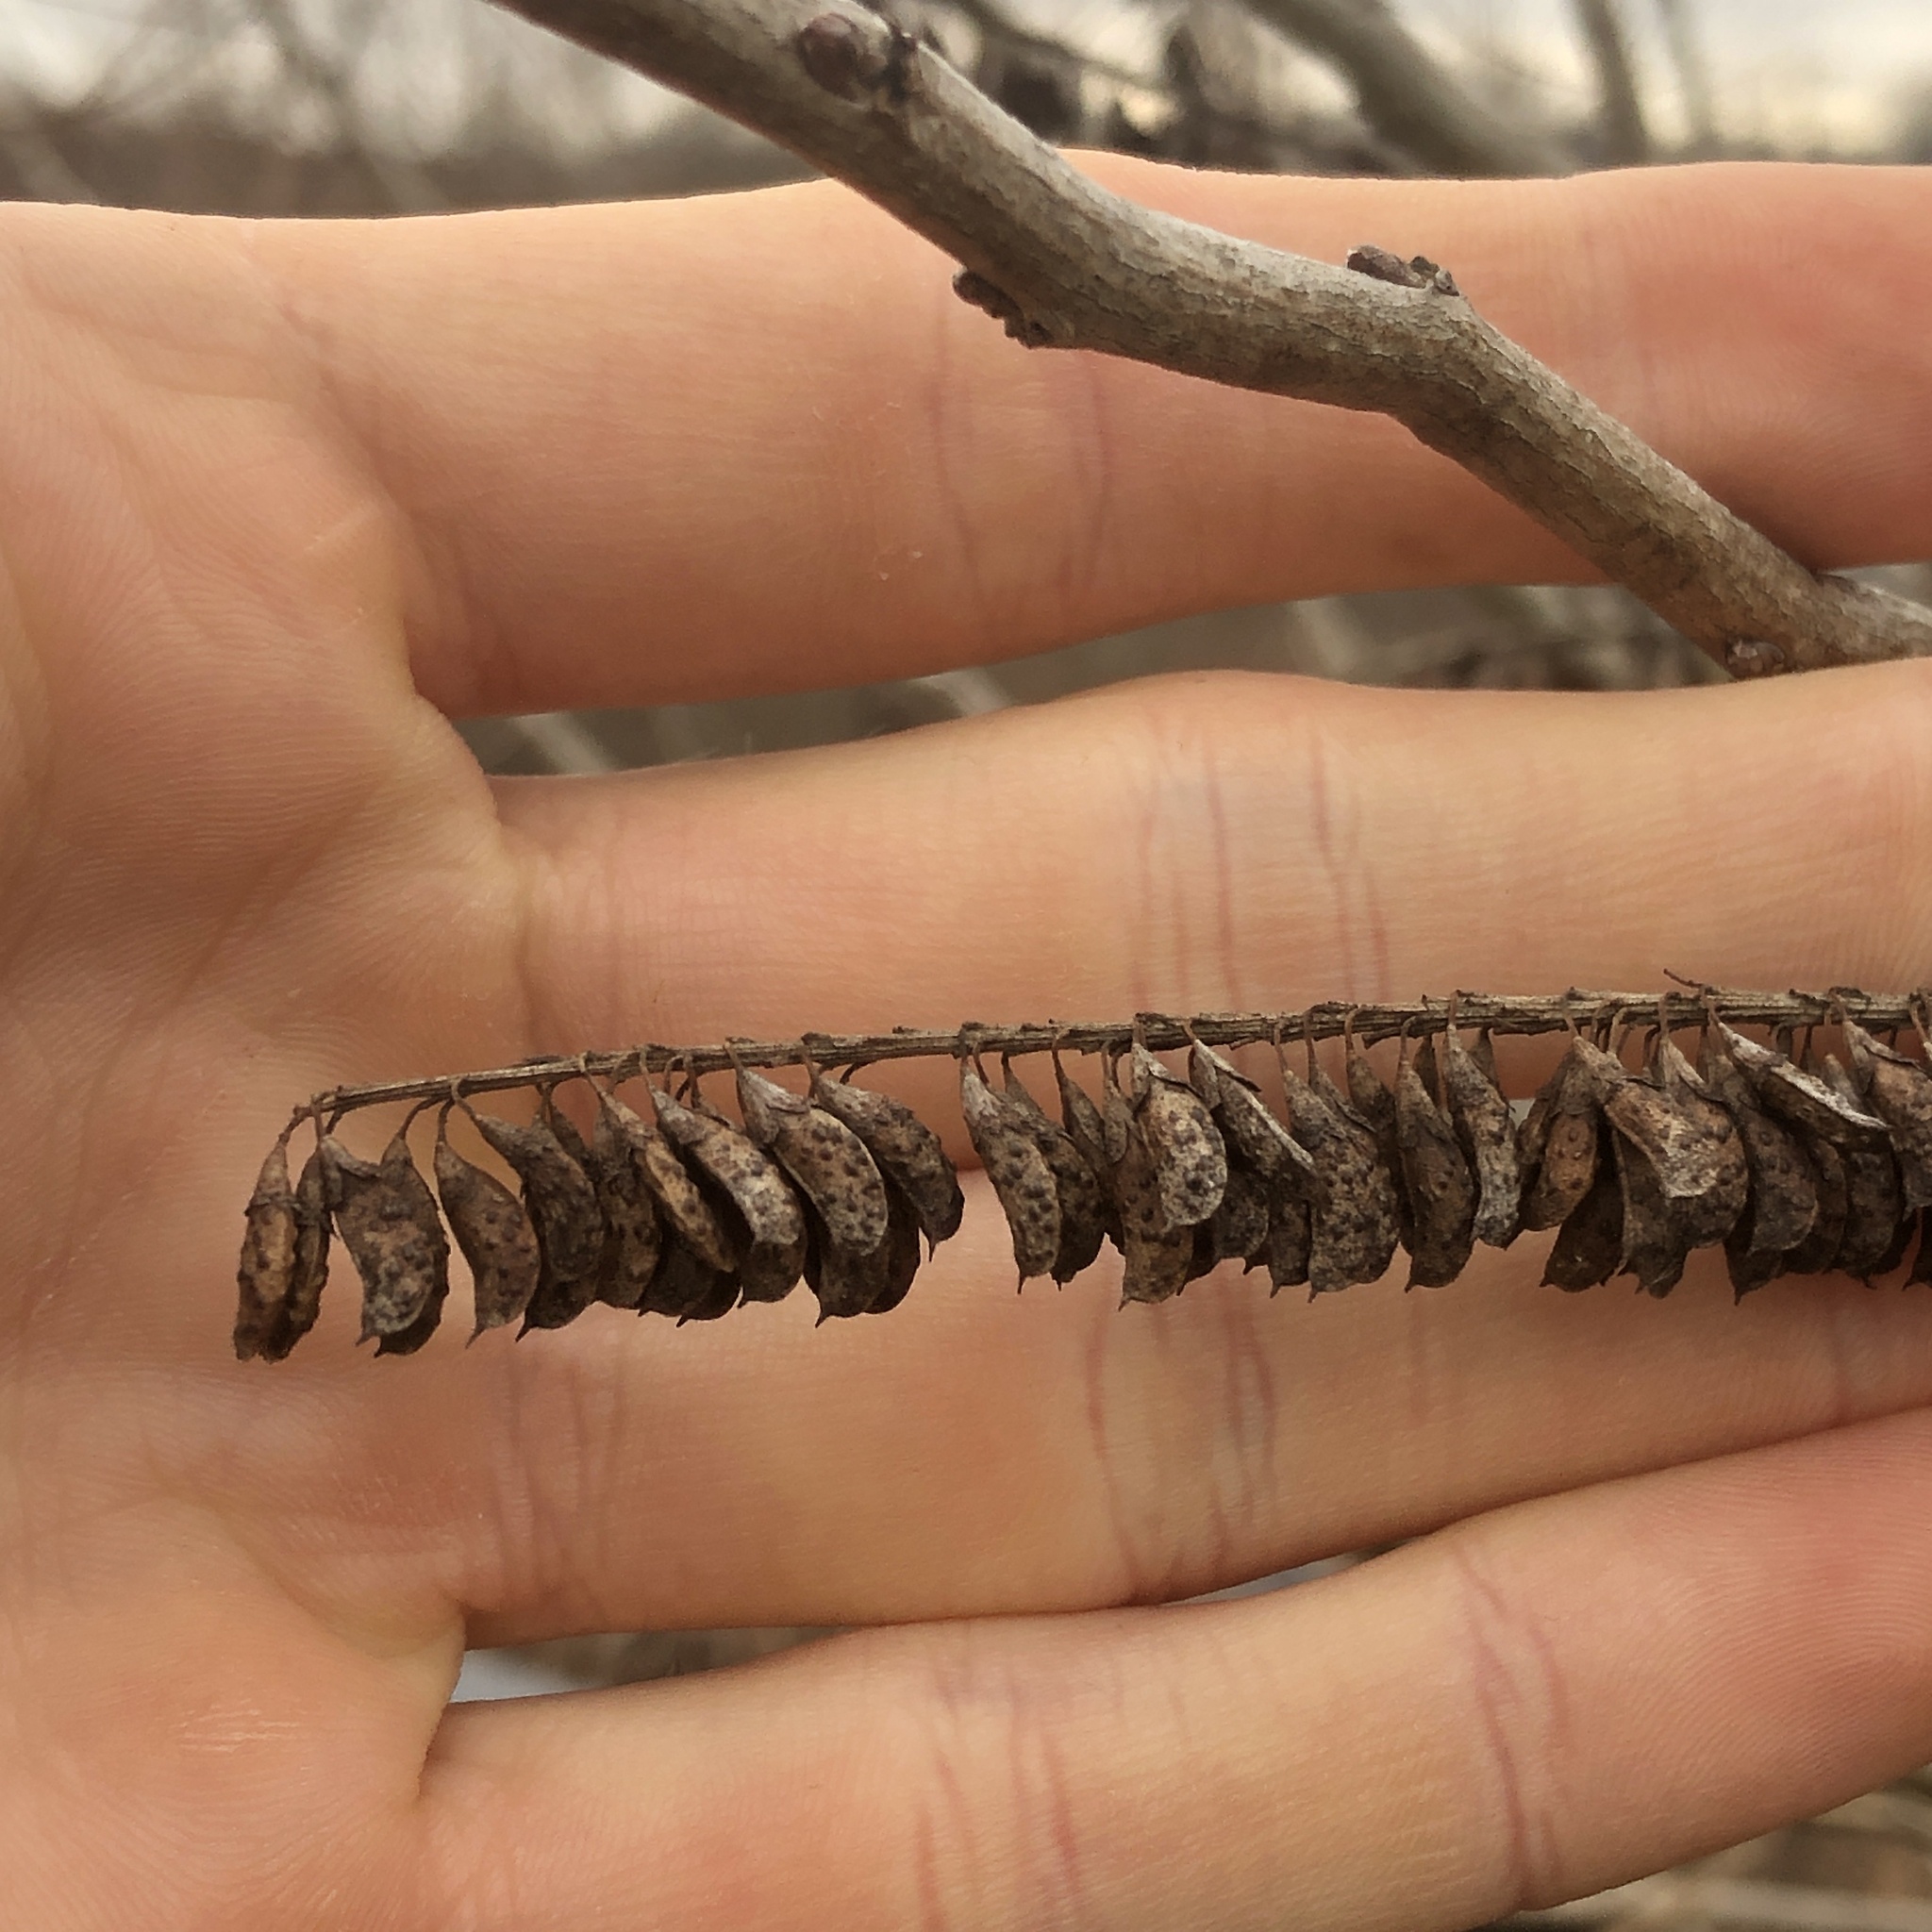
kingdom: Plantae
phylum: Tracheophyta
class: Magnoliopsida
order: Fabales
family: Fabaceae
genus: Amorpha
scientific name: Amorpha fruticosa
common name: False indigo
